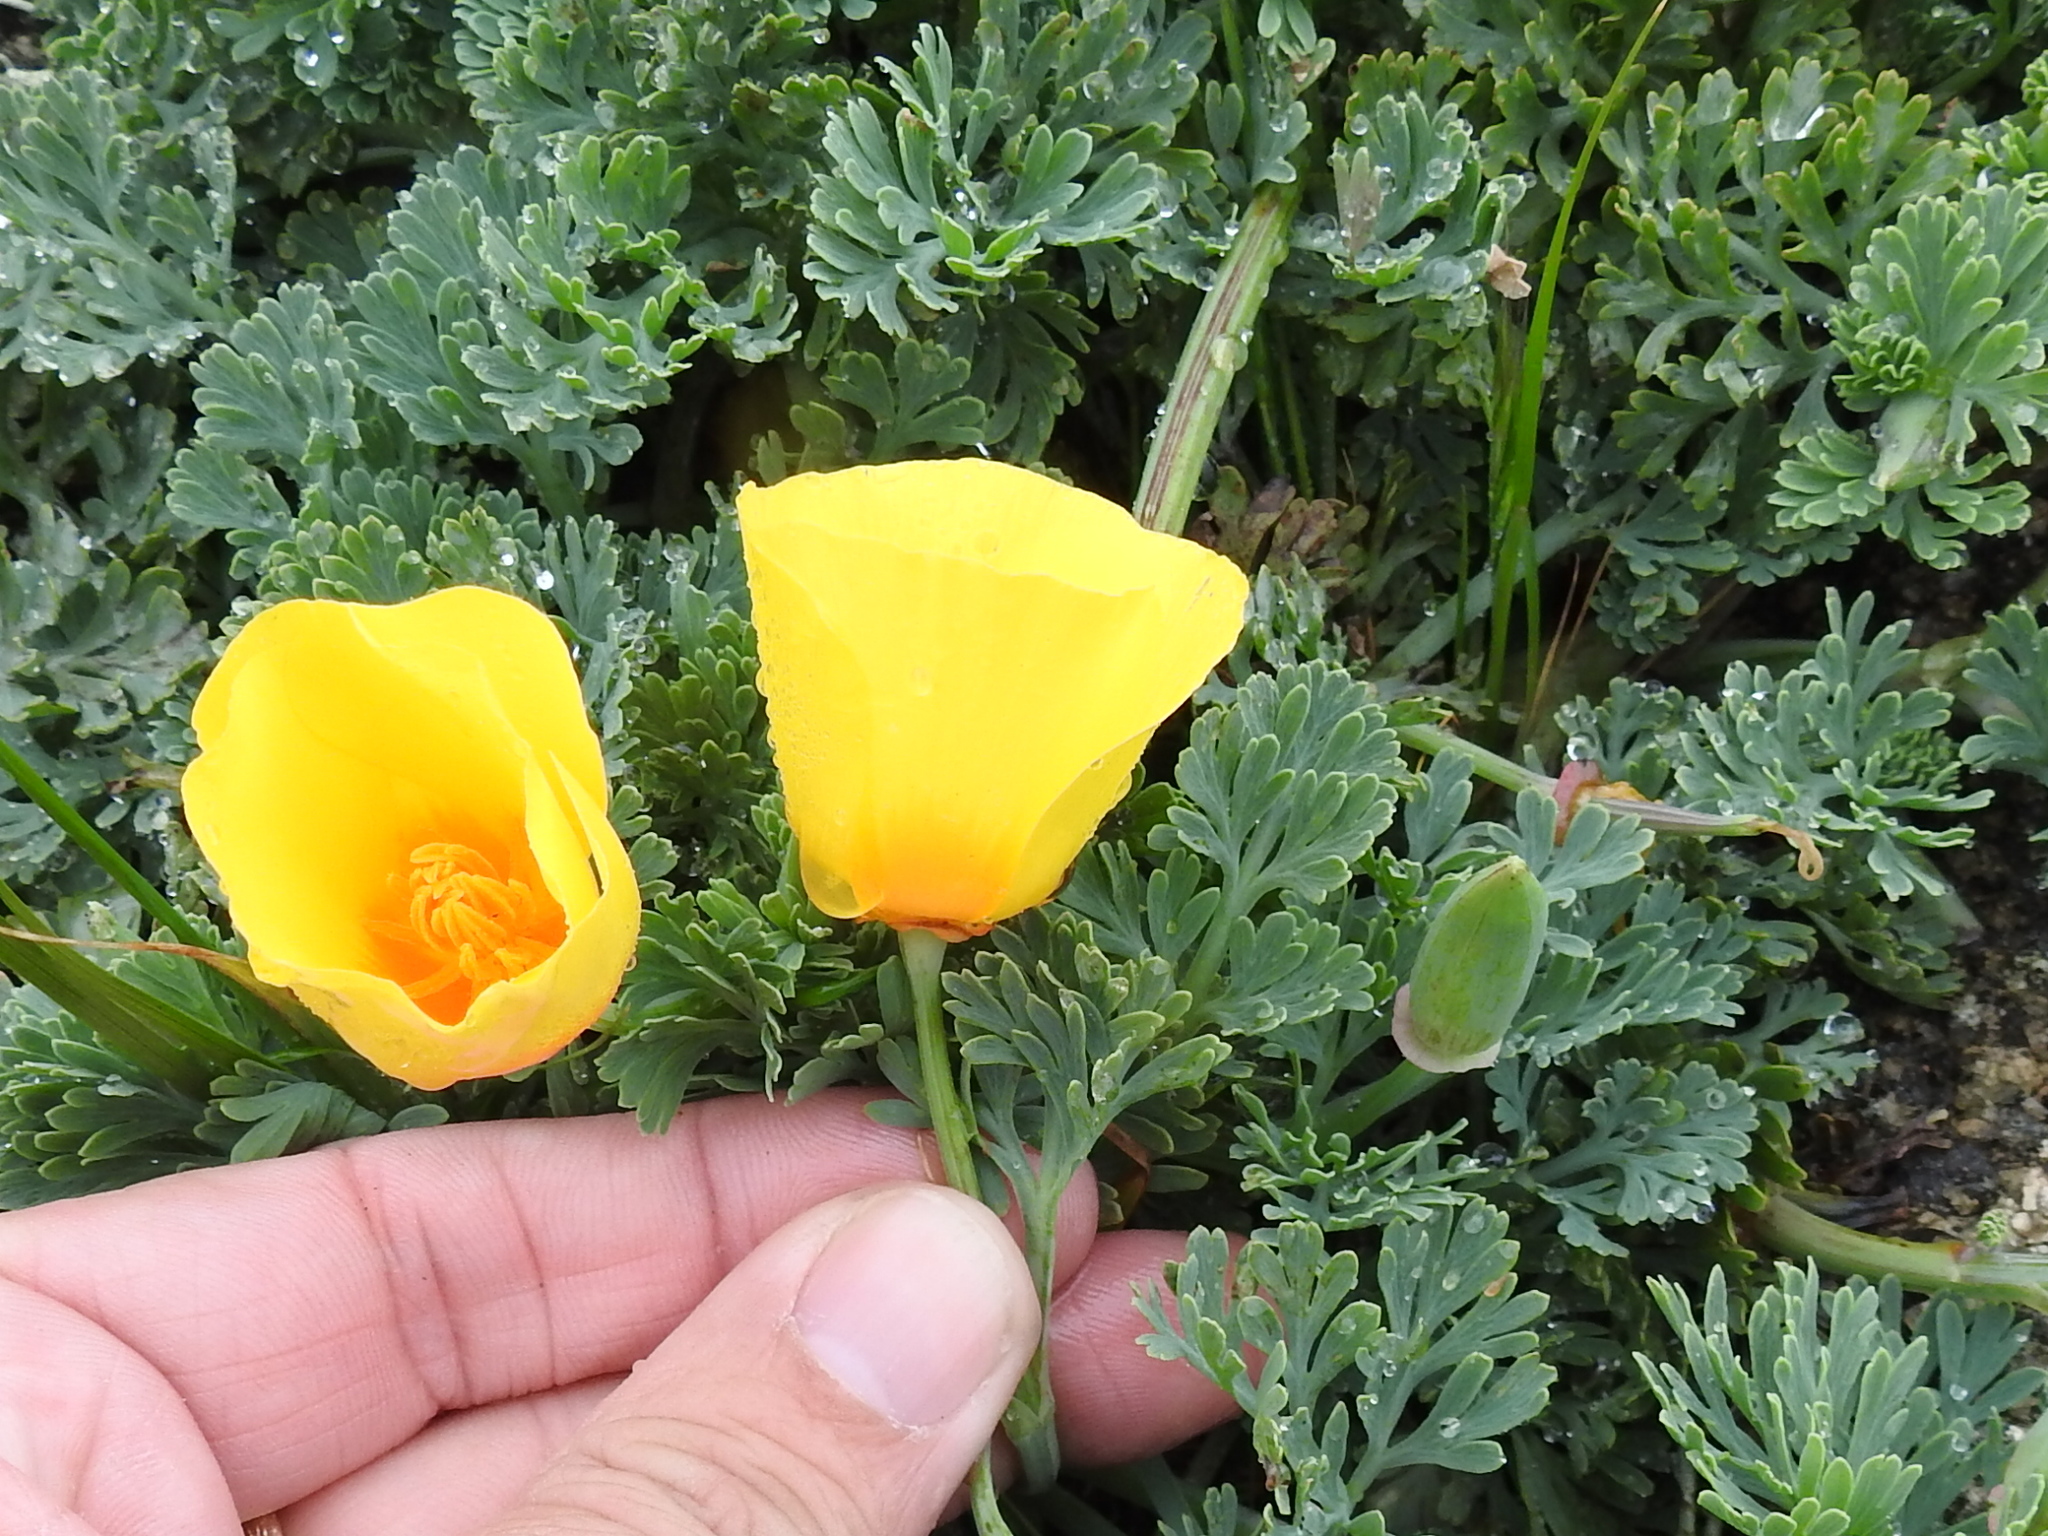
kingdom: Plantae
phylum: Tracheophyta
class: Magnoliopsida
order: Ranunculales
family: Papaveraceae
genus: Eschscholzia
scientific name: Eschscholzia californica
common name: California poppy
